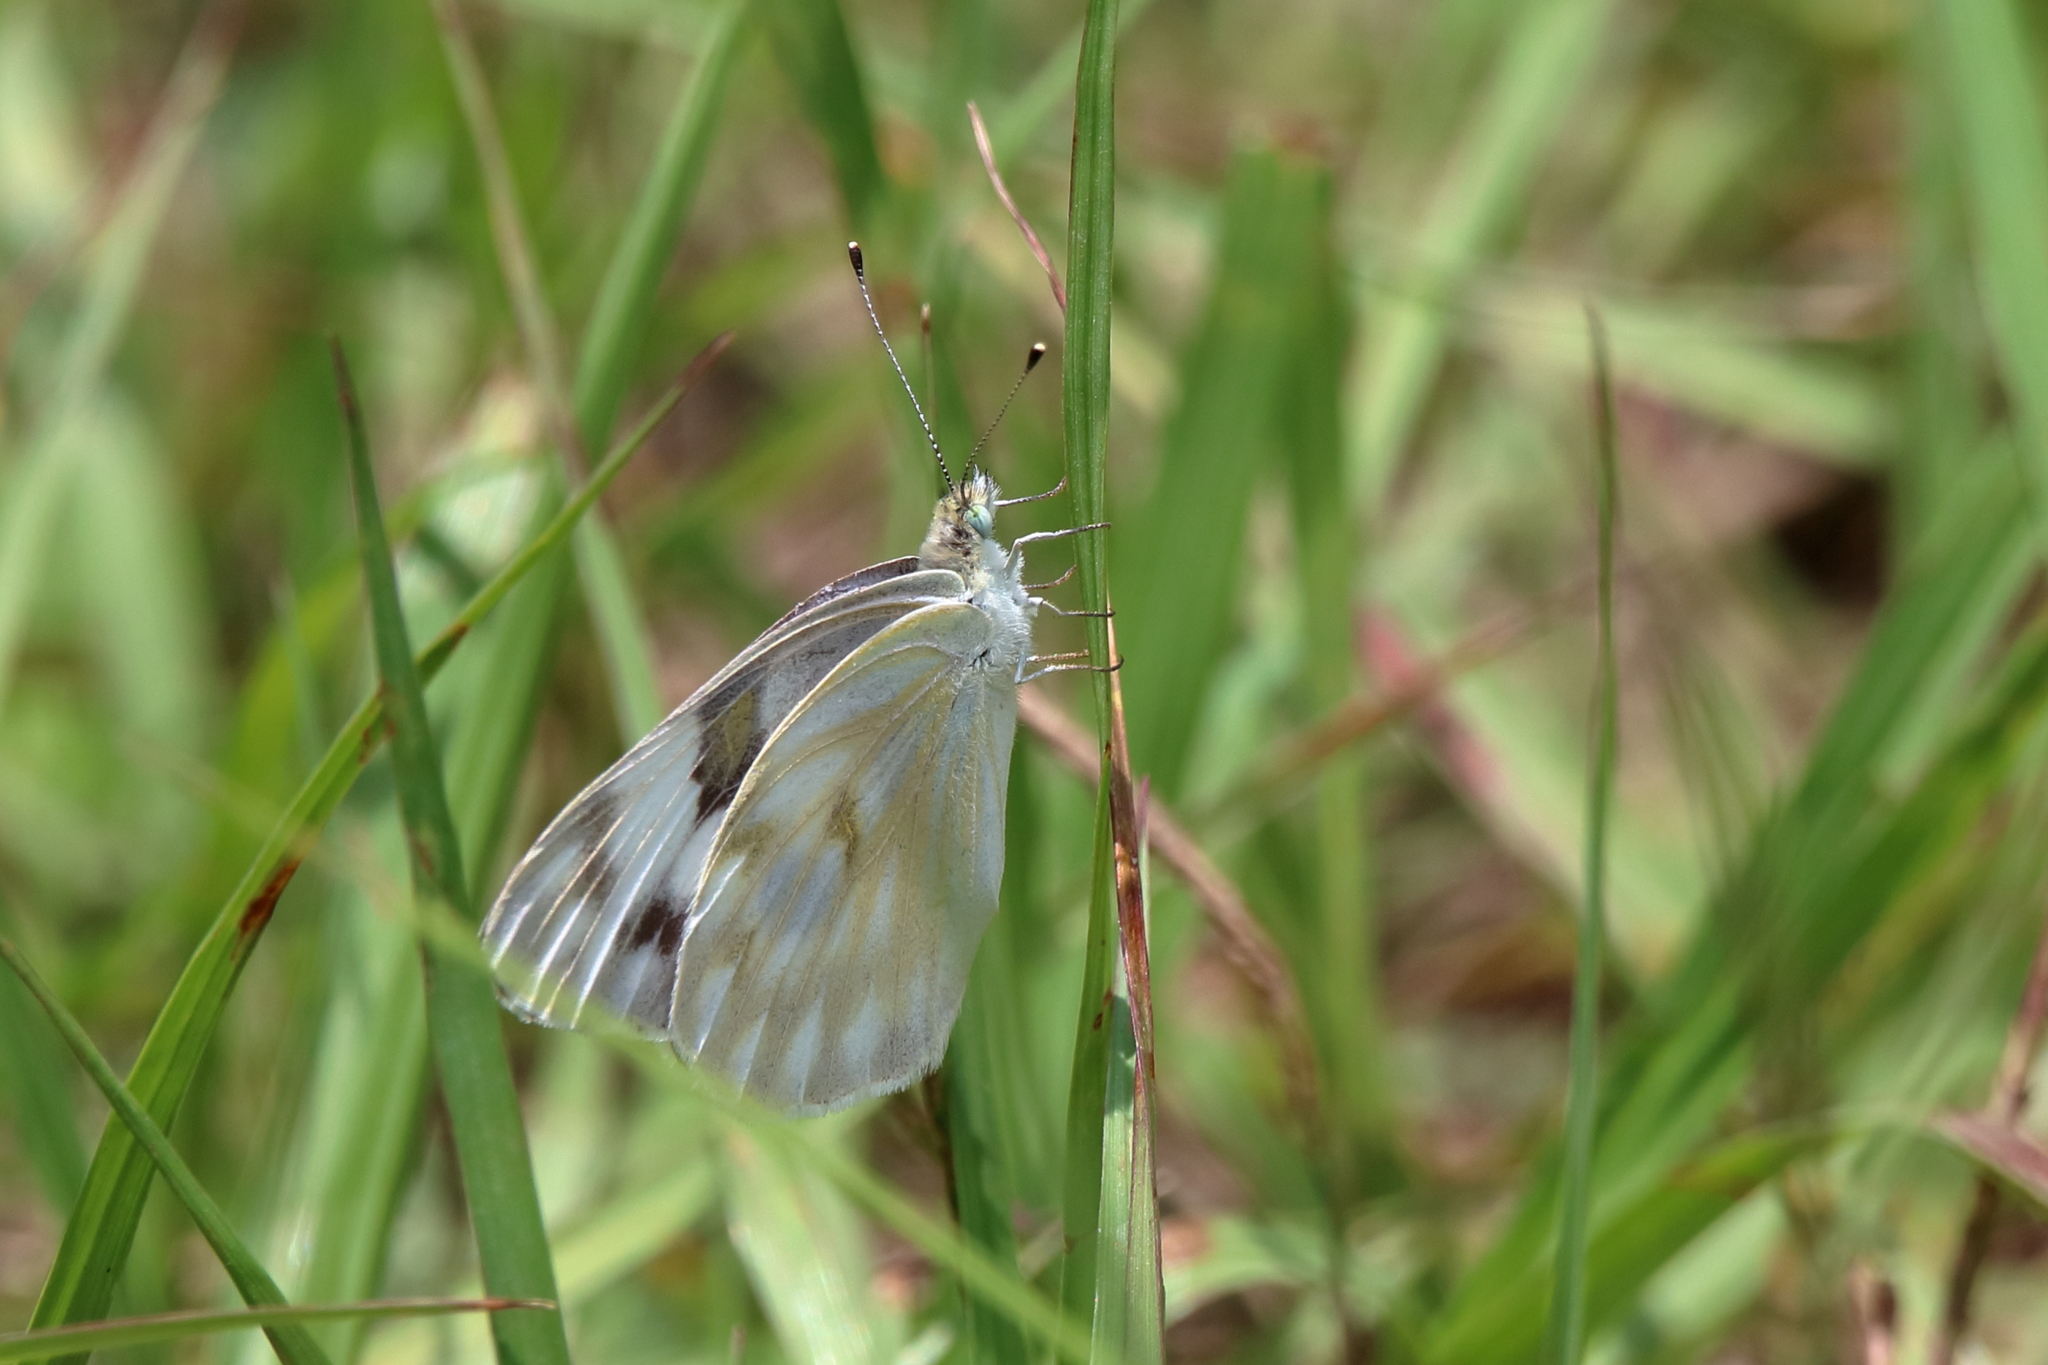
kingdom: Animalia
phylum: Arthropoda
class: Insecta
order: Lepidoptera
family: Pieridae
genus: Pontia
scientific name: Pontia protodice
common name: Checkered white
